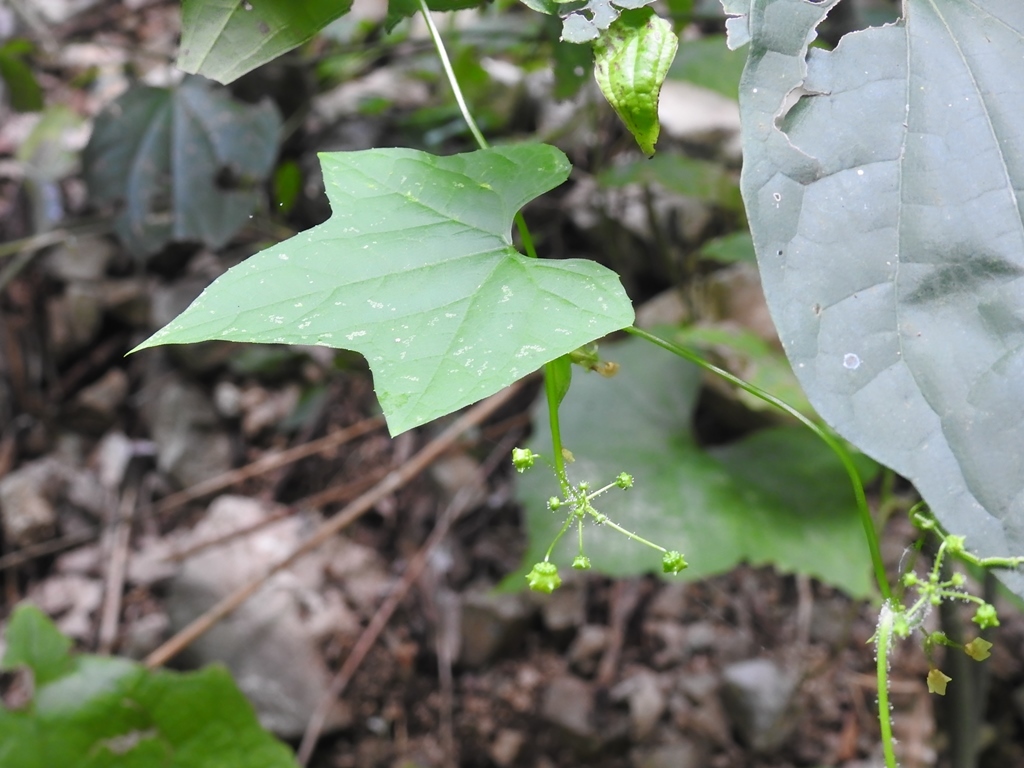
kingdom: Plantae
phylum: Tracheophyta
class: Magnoliopsida
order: Cucurbitales
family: Cucurbitaceae
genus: Echinopepon
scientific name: Echinopepon racemosus
